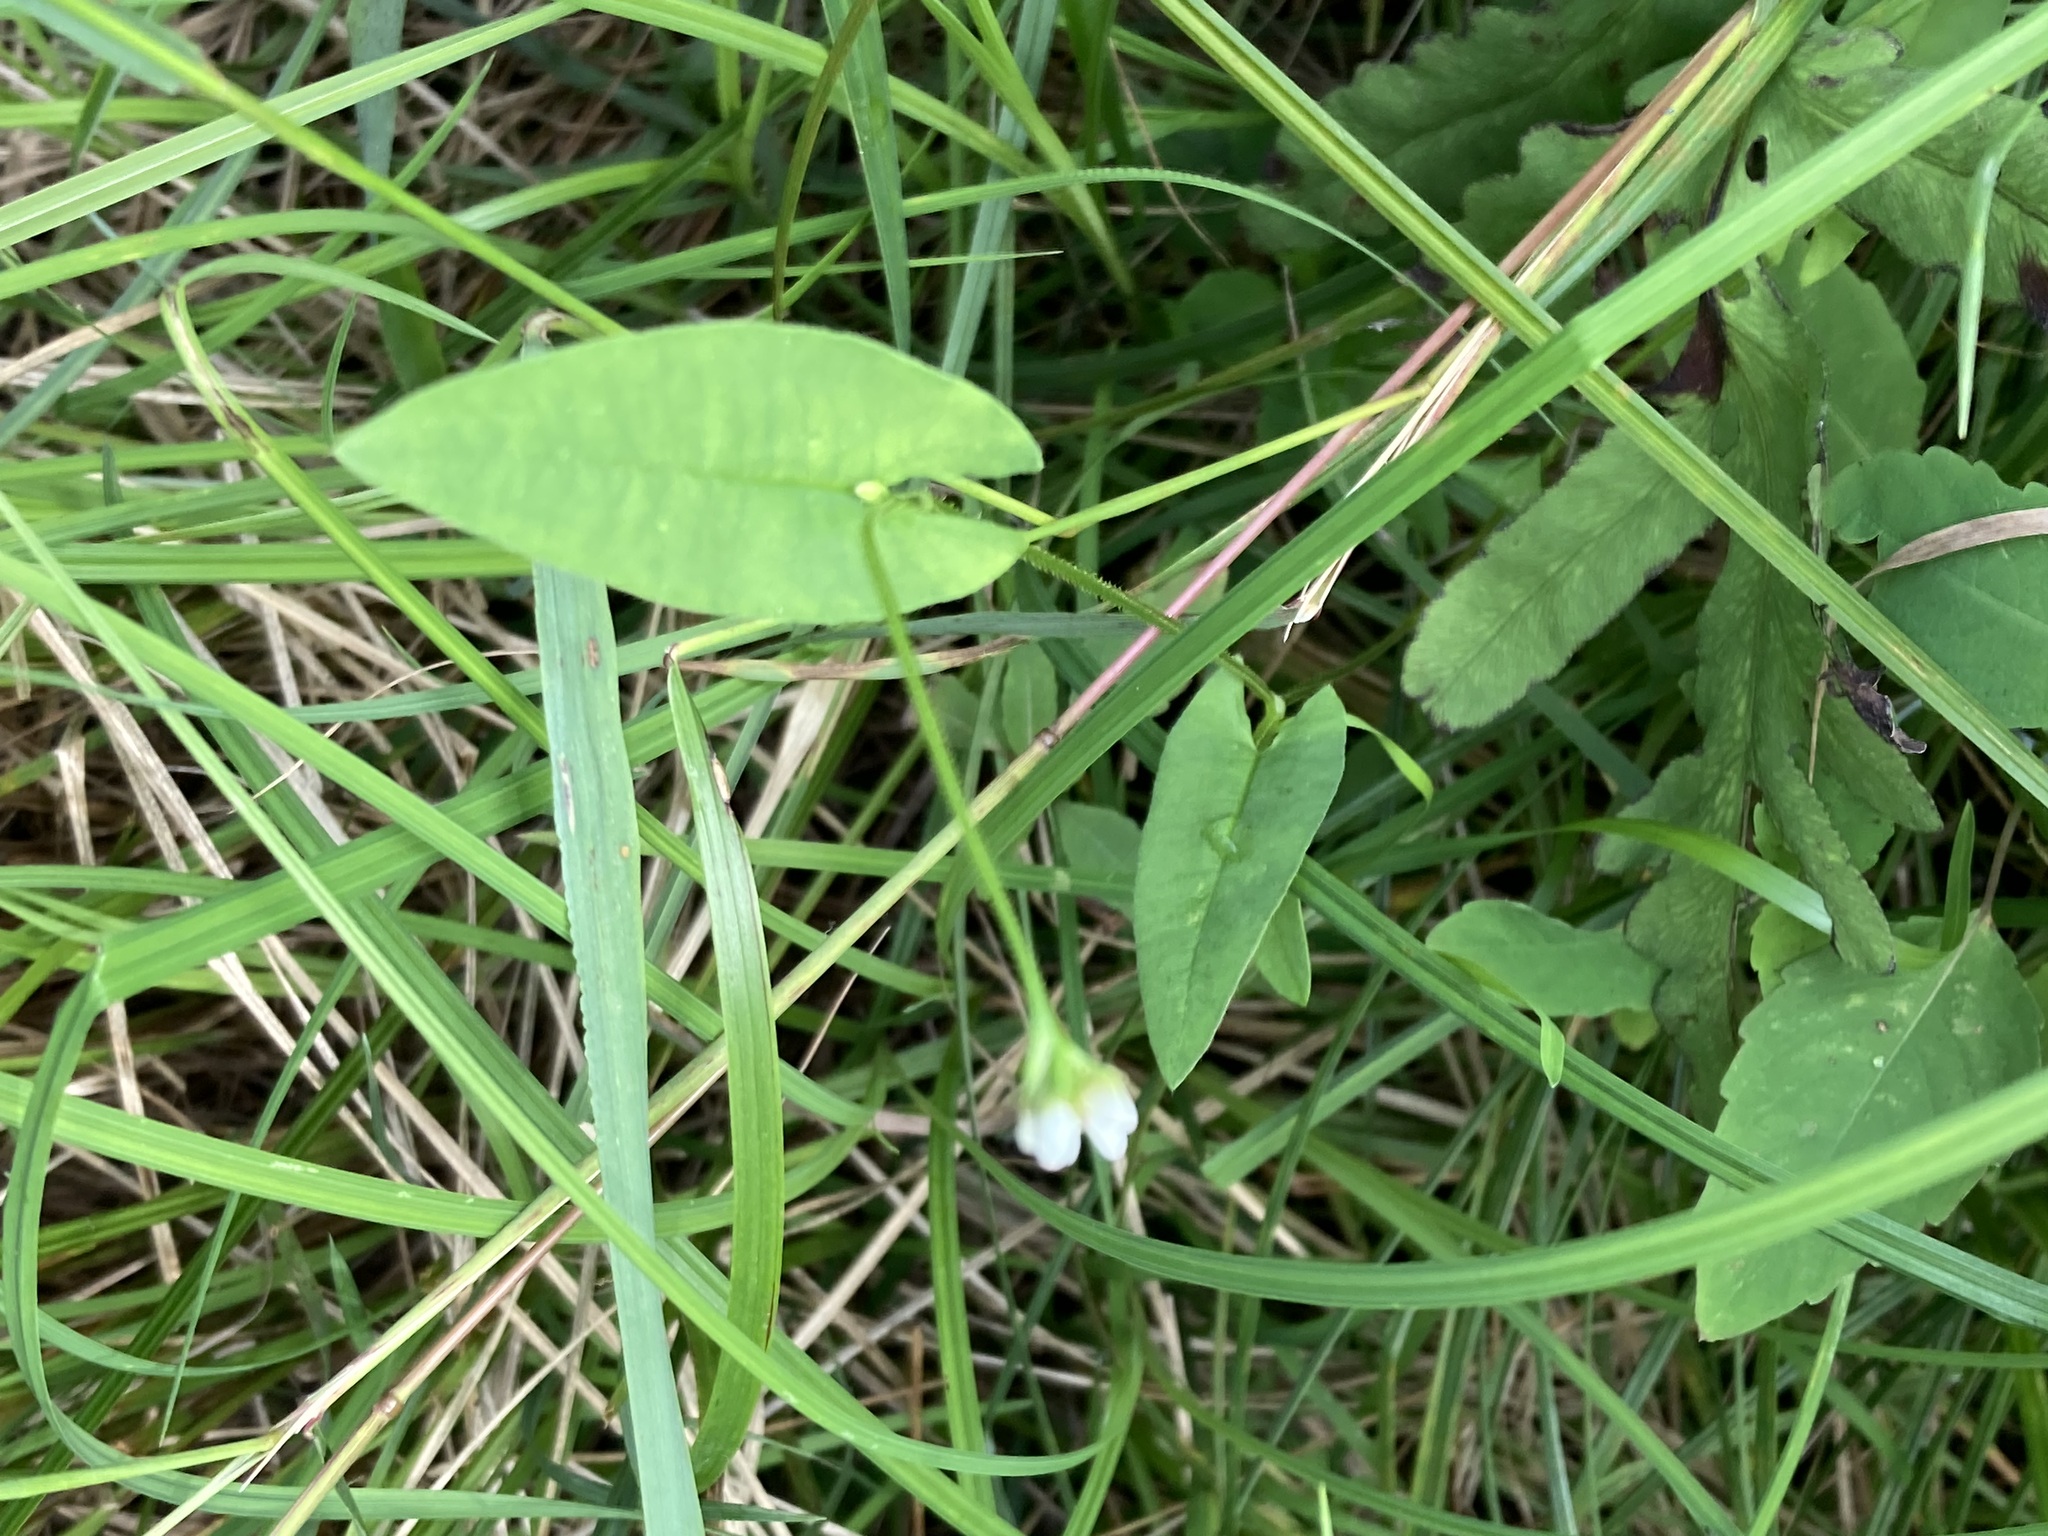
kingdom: Plantae
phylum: Tracheophyta
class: Magnoliopsida
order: Caryophyllales
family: Polygonaceae
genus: Persicaria
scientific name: Persicaria sagittata
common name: American tearthumb
